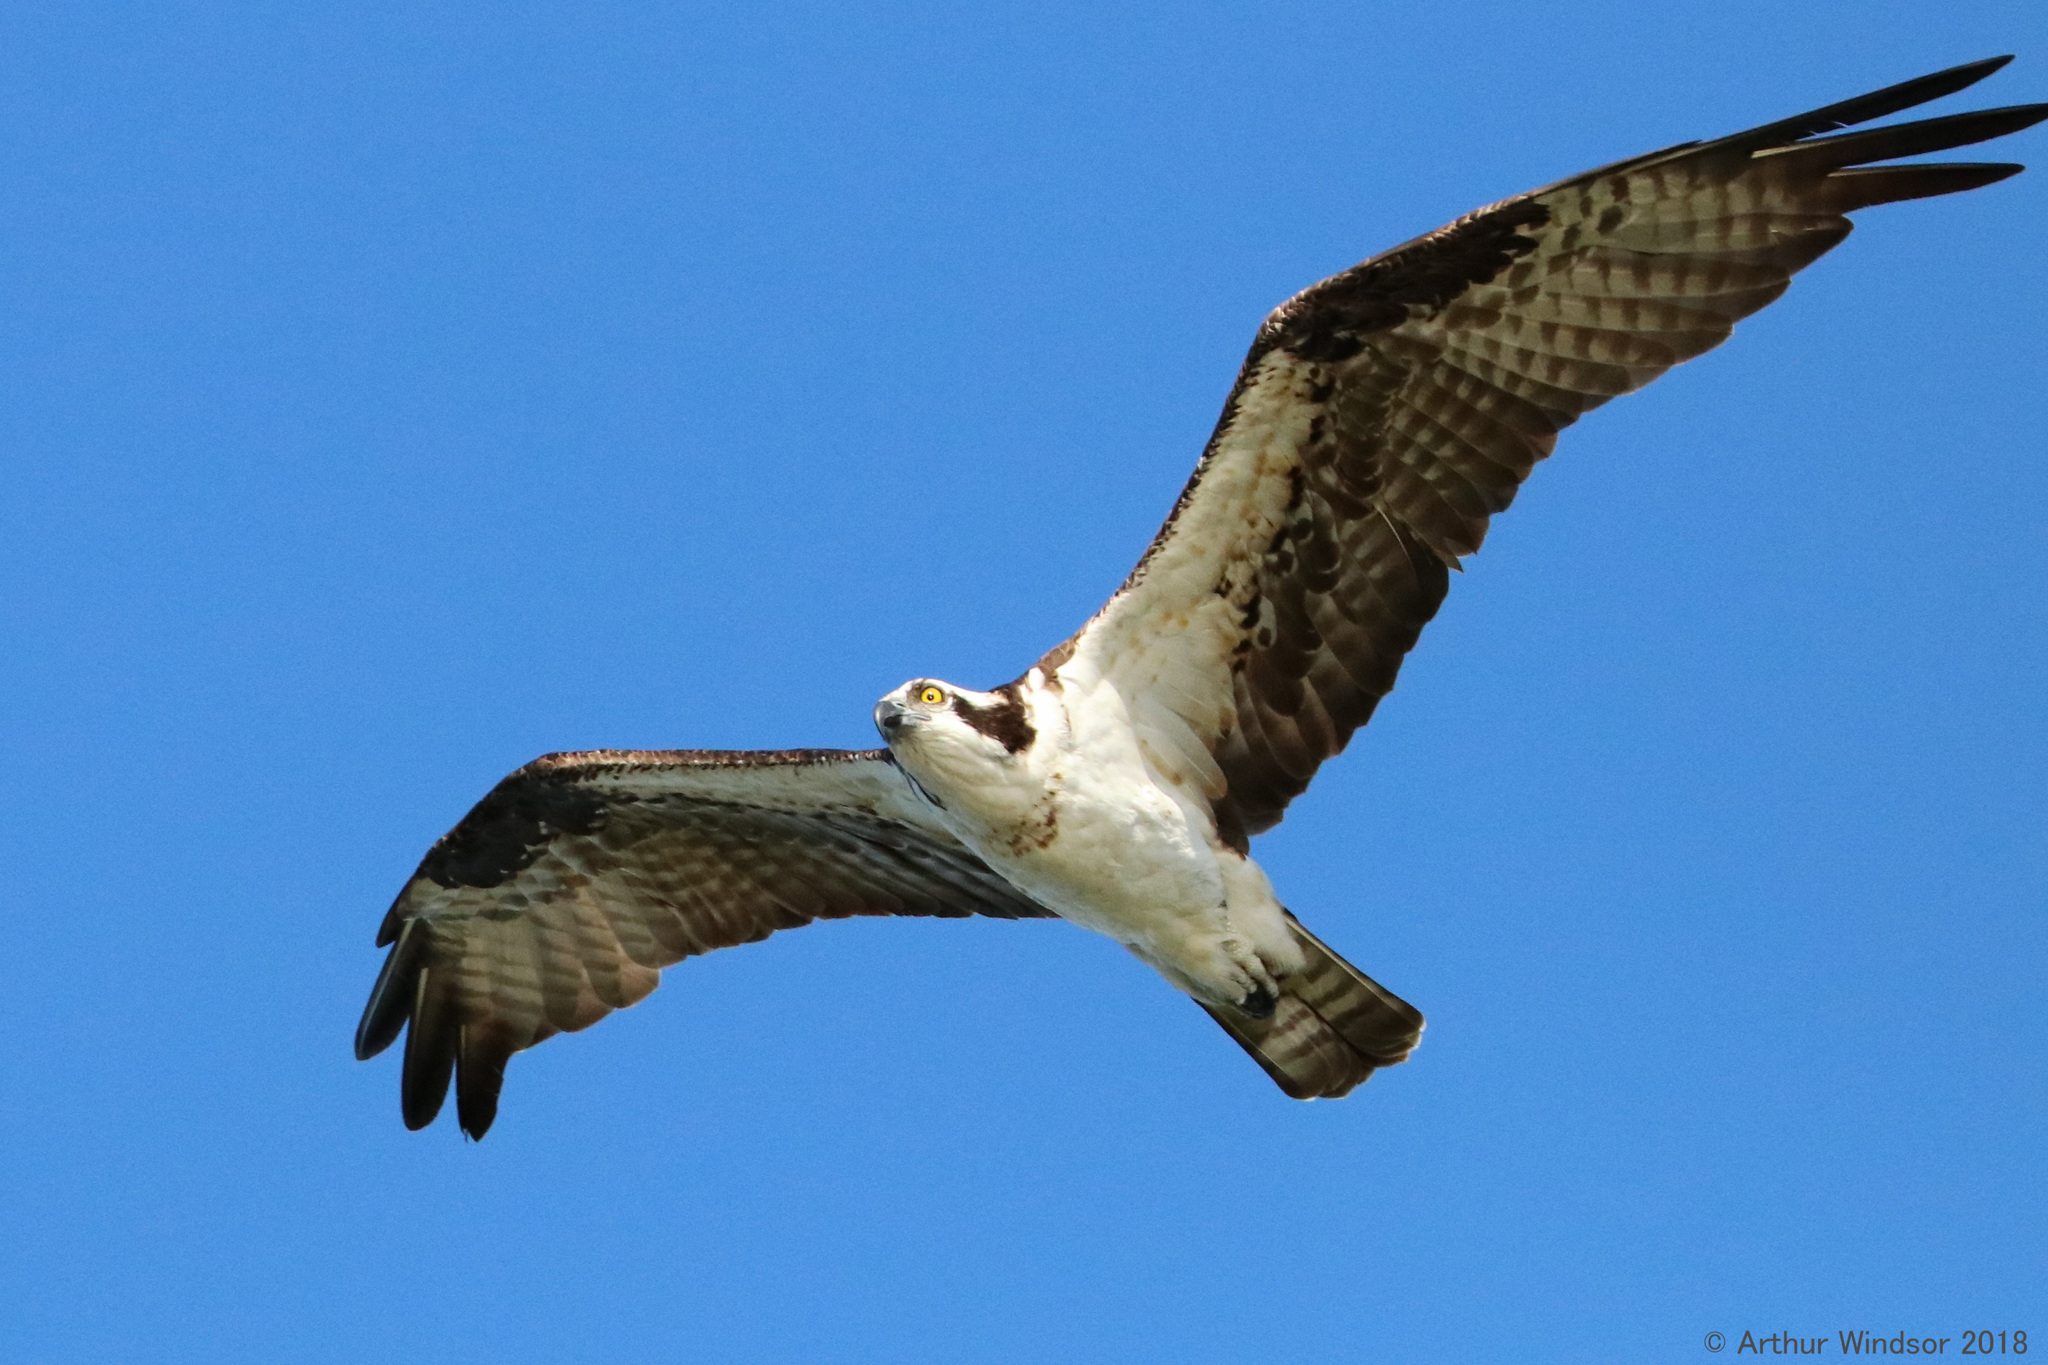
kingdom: Animalia
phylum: Chordata
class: Aves
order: Accipitriformes
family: Pandionidae
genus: Pandion
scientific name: Pandion haliaetus
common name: Osprey
